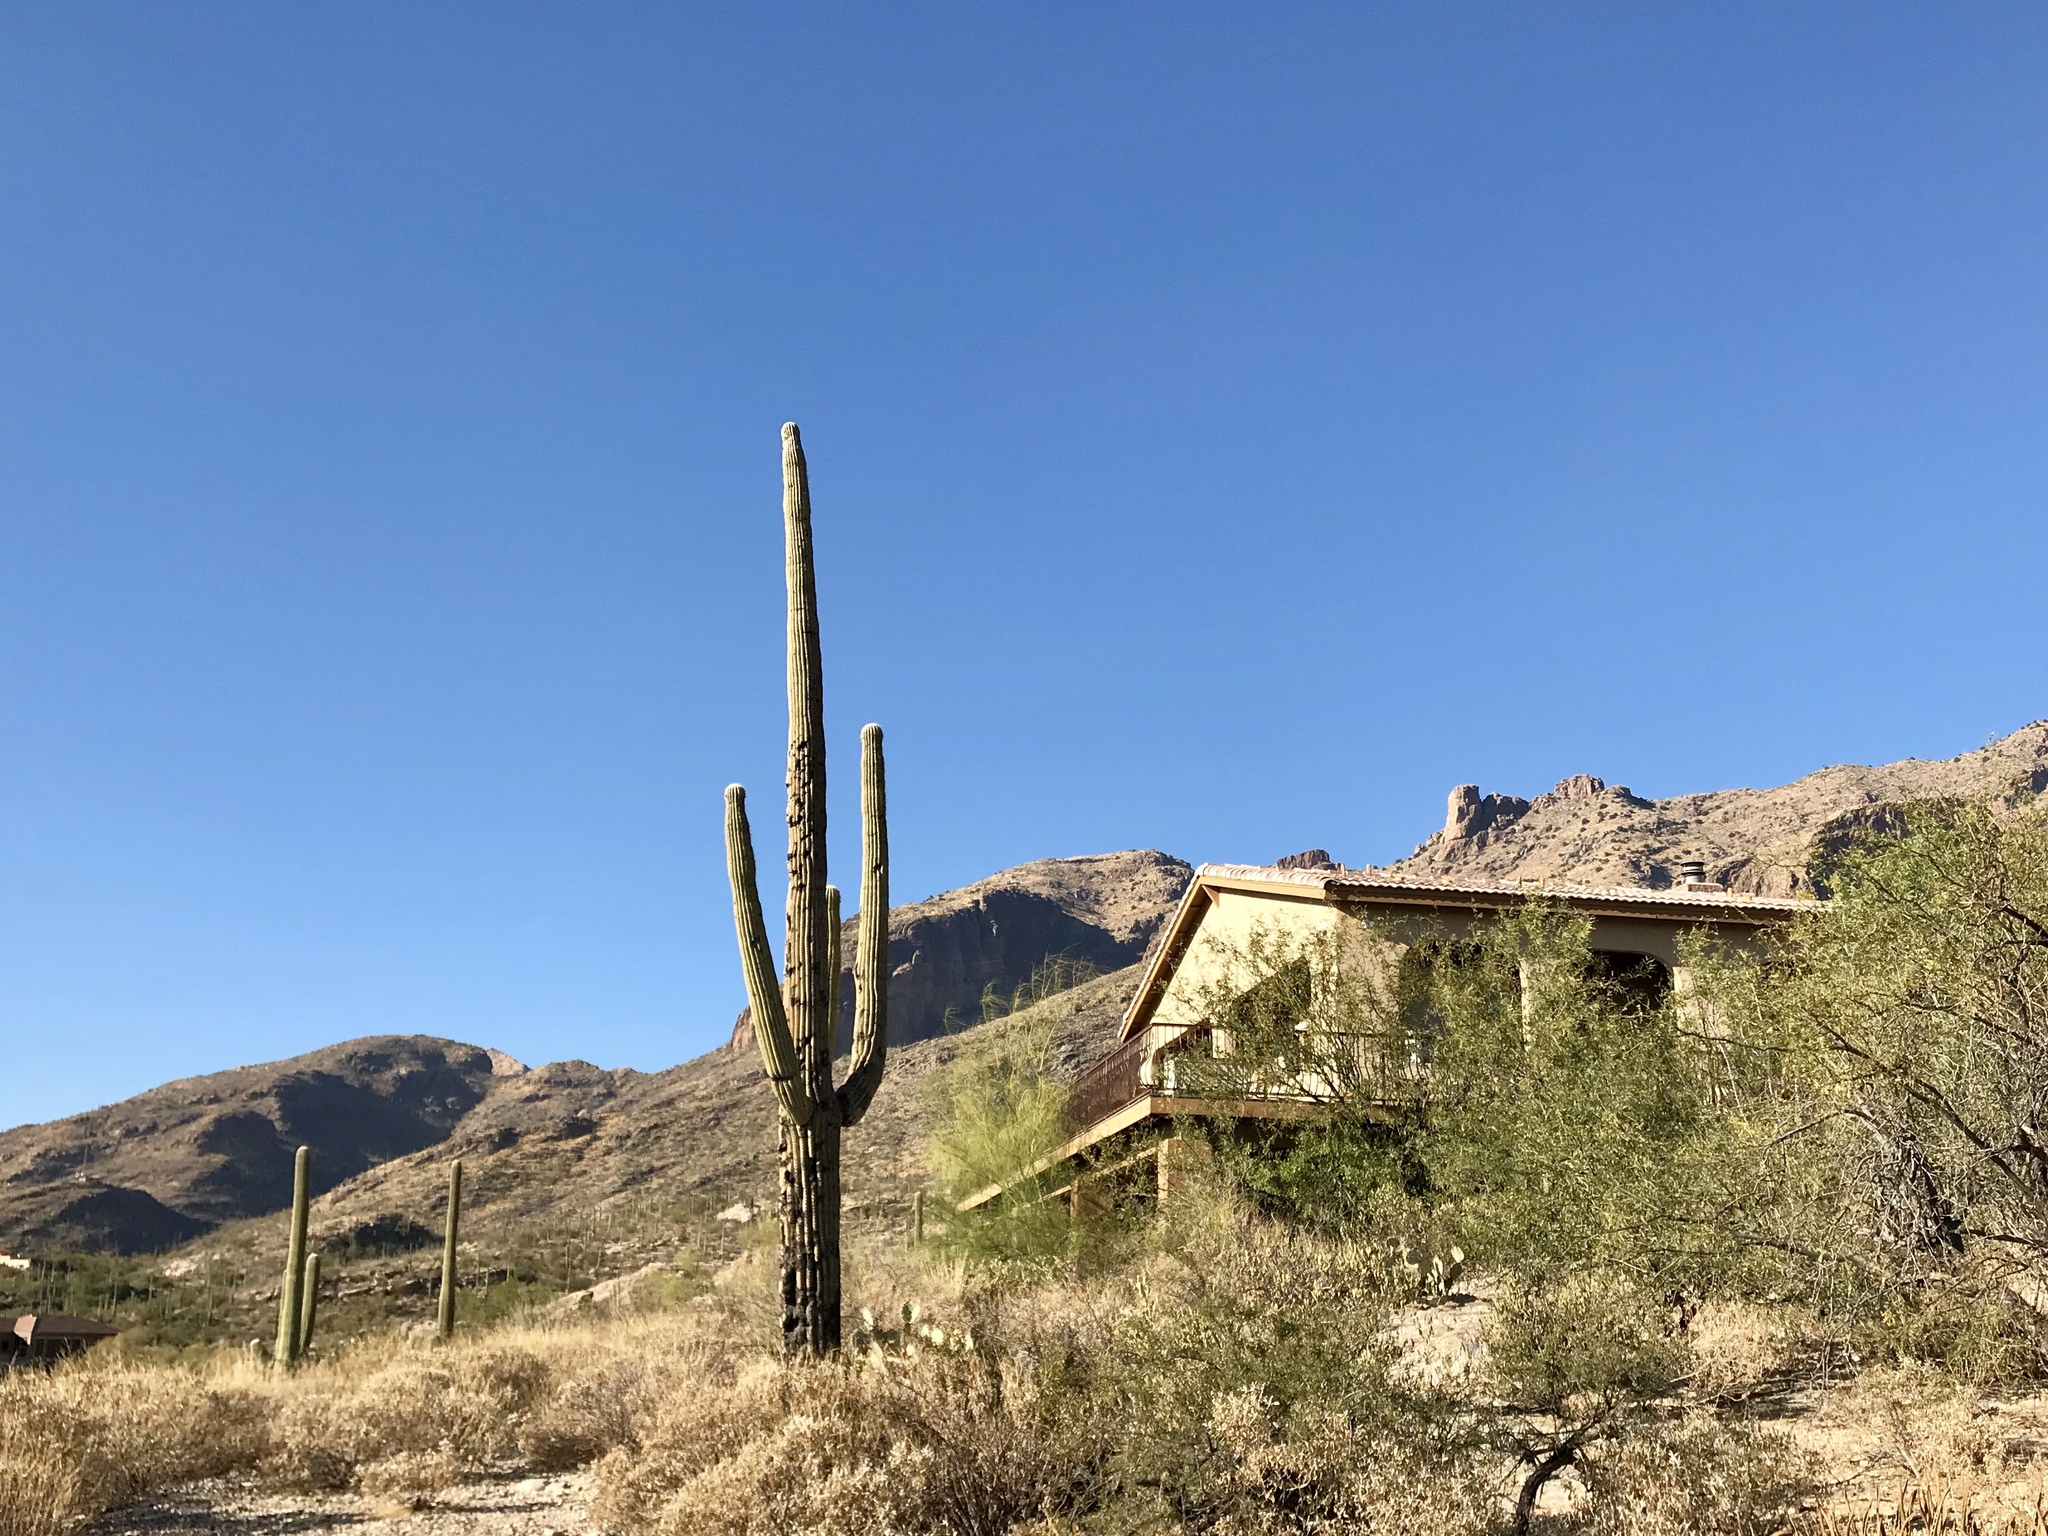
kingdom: Plantae
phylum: Tracheophyta
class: Magnoliopsida
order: Caryophyllales
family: Cactaceae
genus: Carnegiea
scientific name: Carnegiea gigantea
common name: Saguaro
